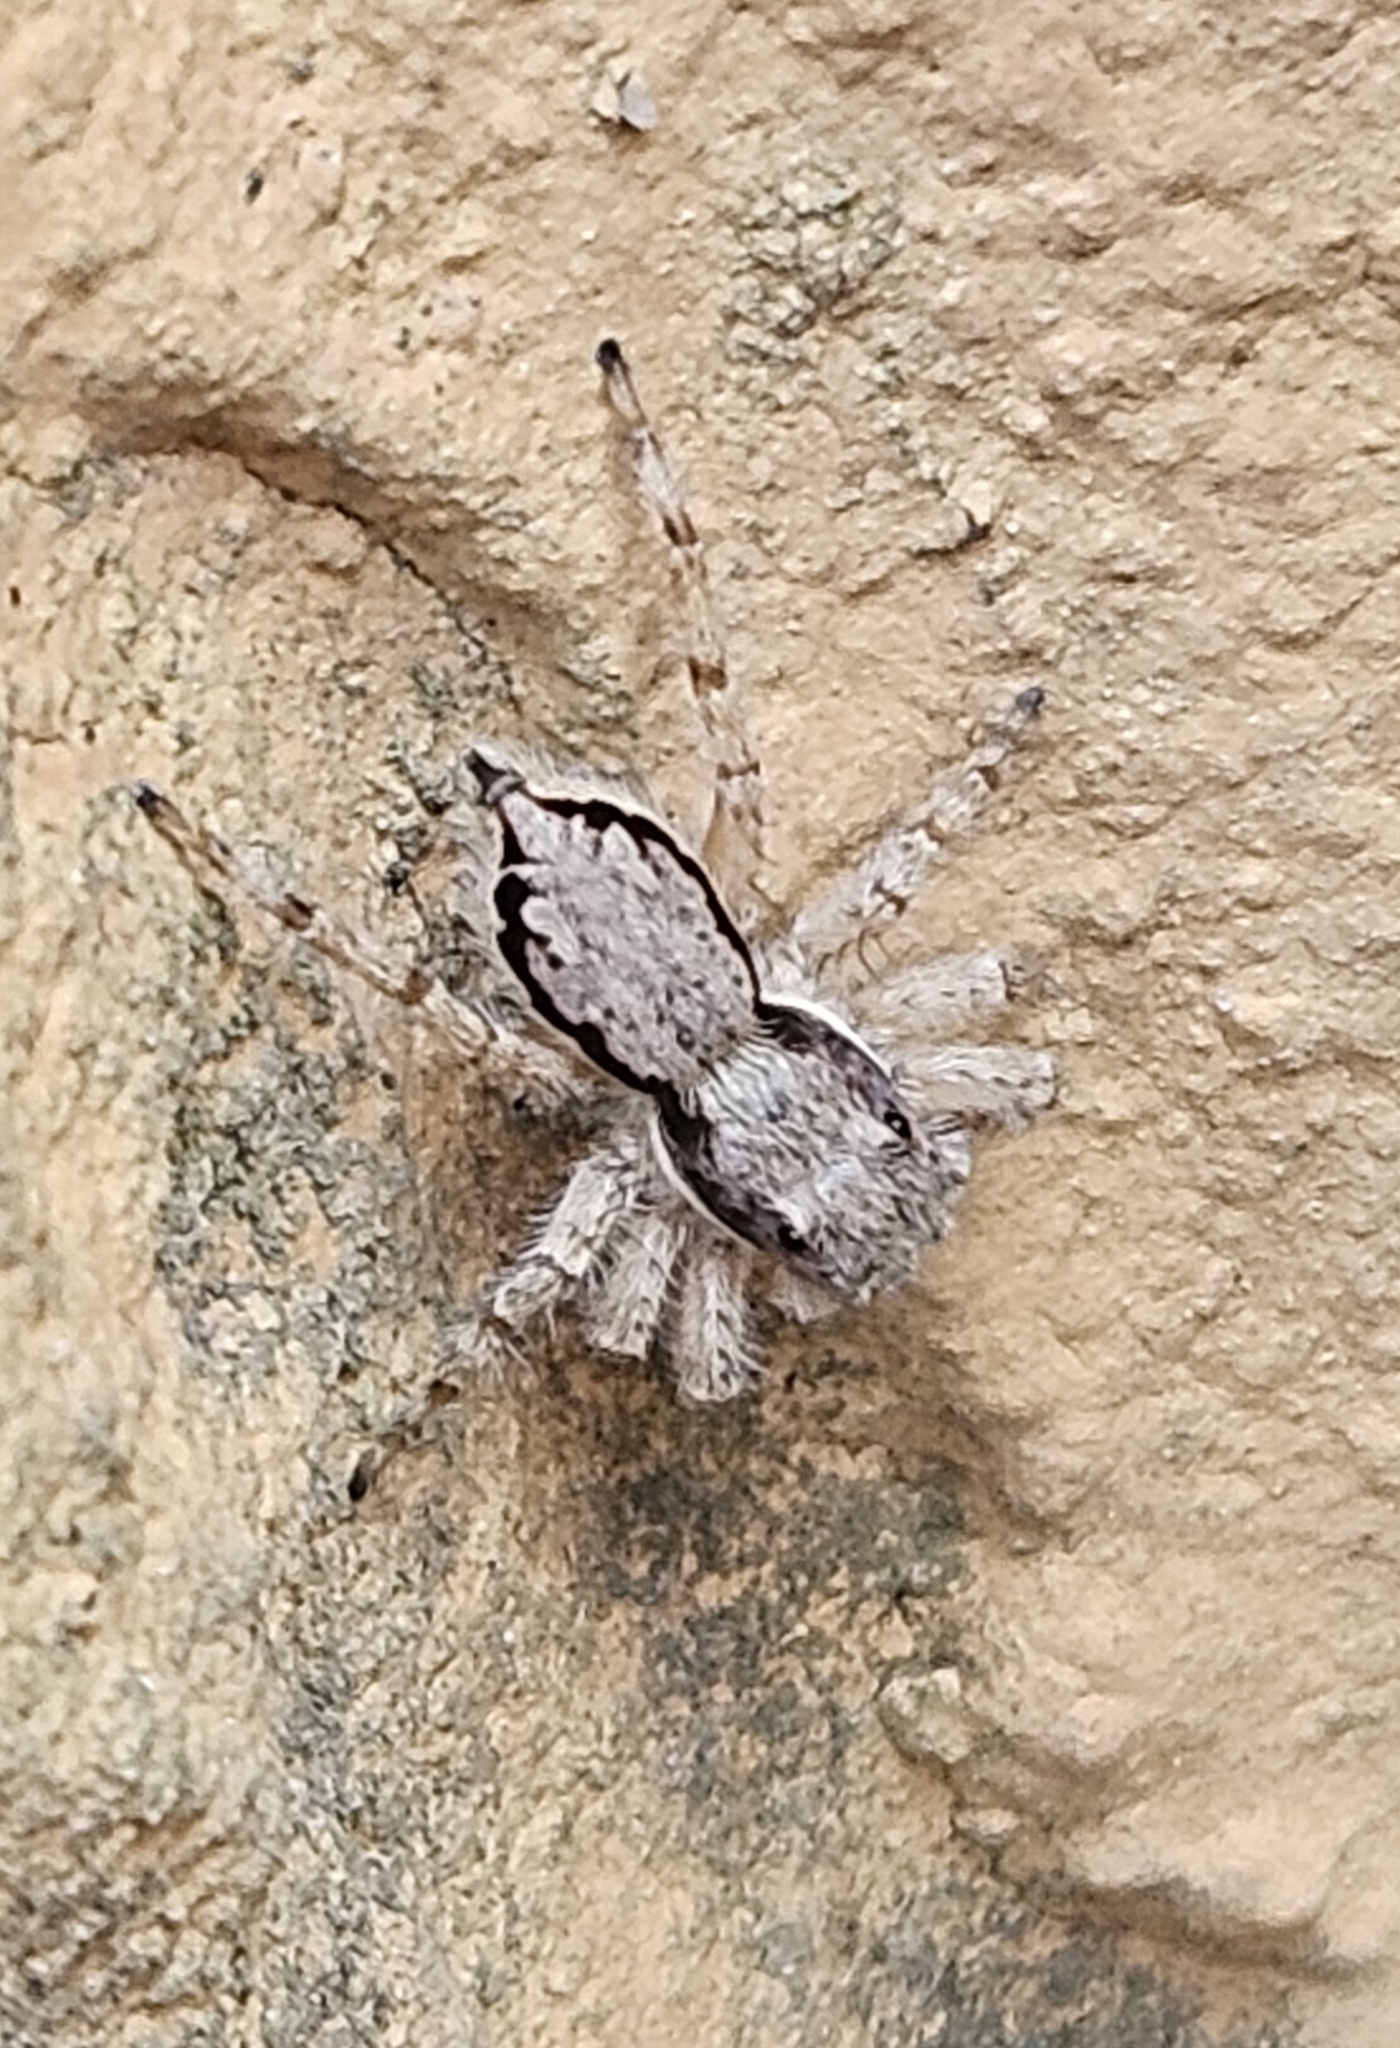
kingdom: Animalia
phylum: Arthropoda
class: Arachnida
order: Araneae
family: Salticidae
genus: Menemerus
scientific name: Menemerus bivittatus
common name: Gray wall jumper
